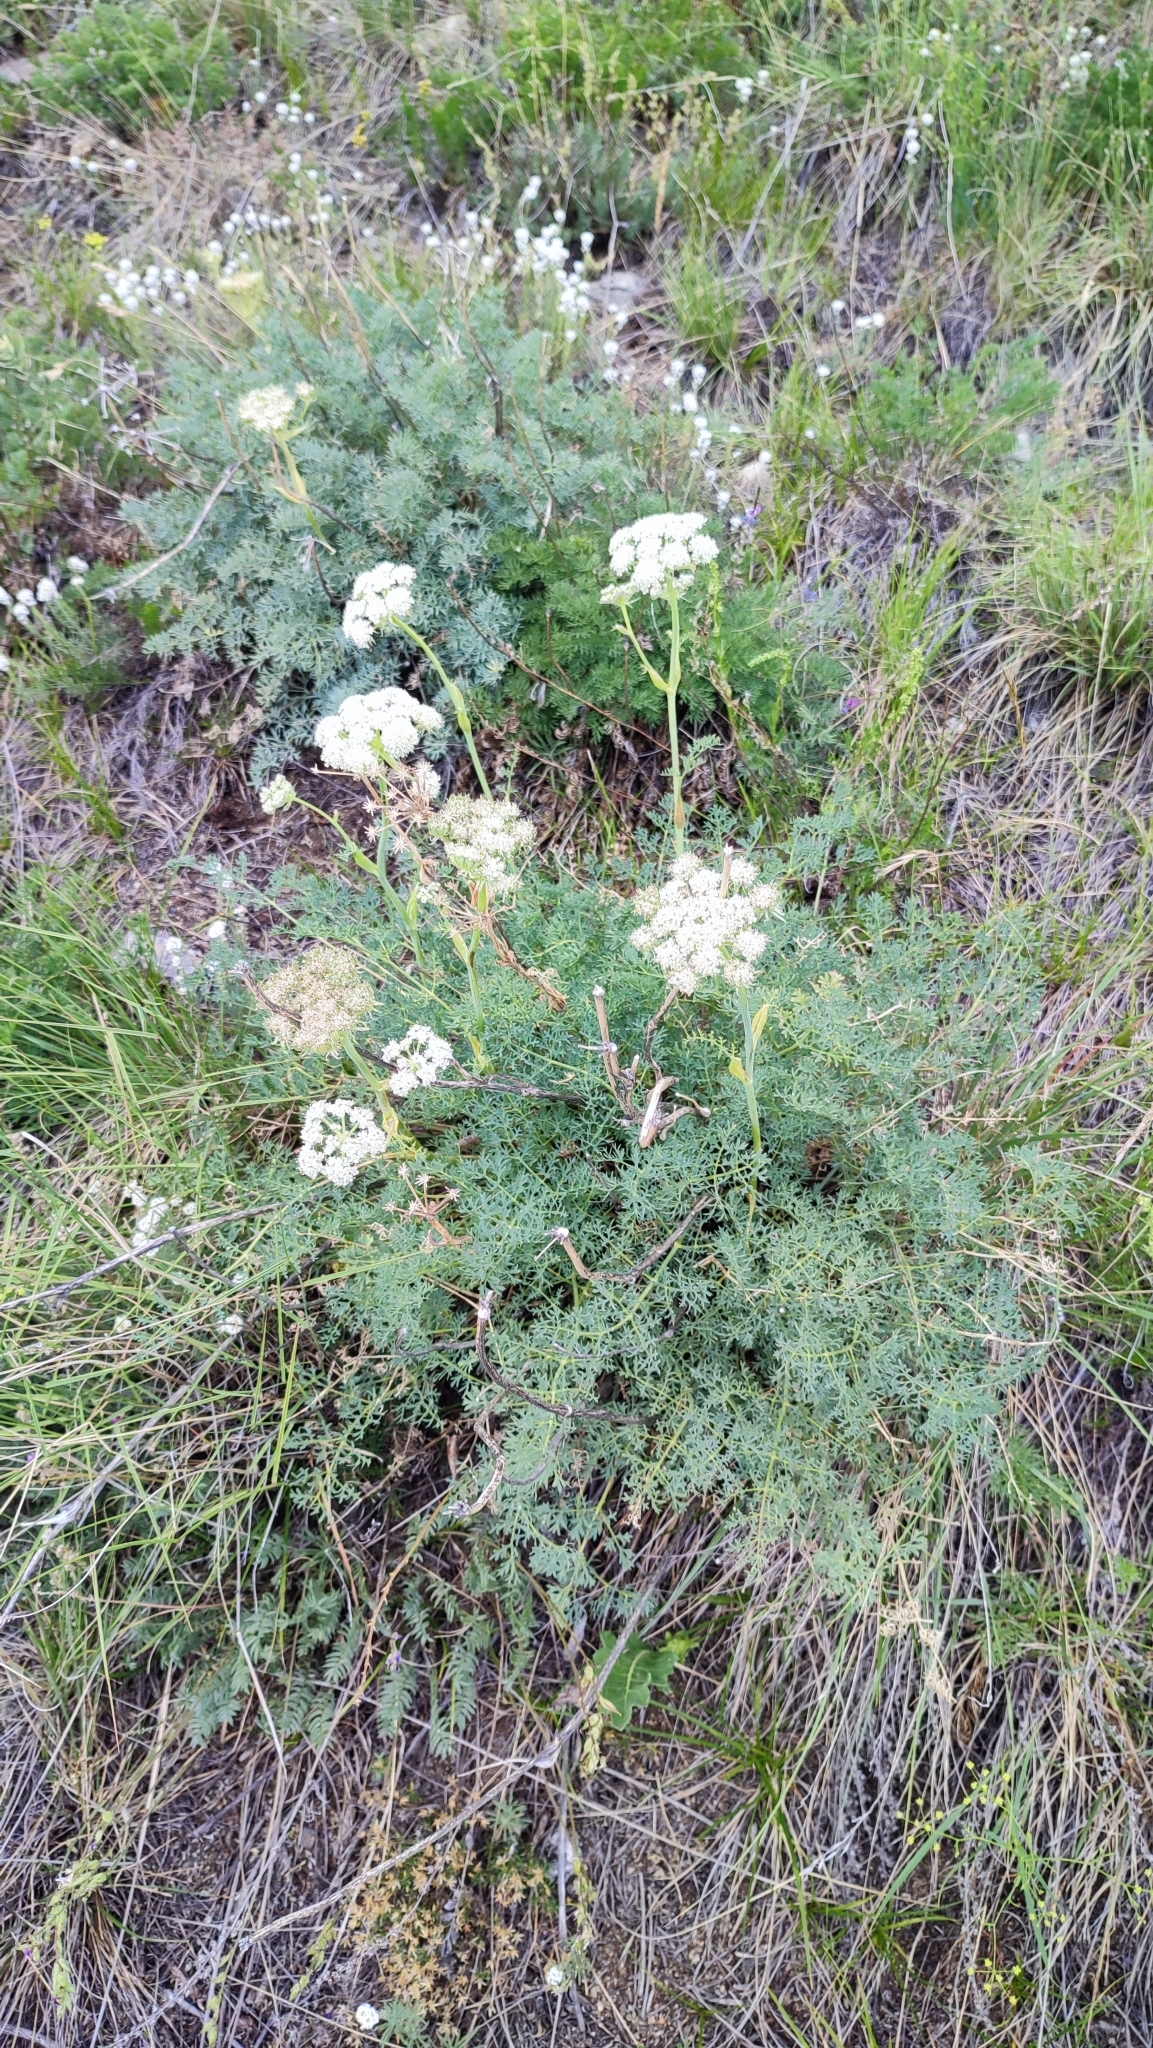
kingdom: Plantae
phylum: Tracheophyta
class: Magnoliopsida
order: Apiales
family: Apiaceae
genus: Phlojodicarpus
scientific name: Phlojodicarpus sibiricus
